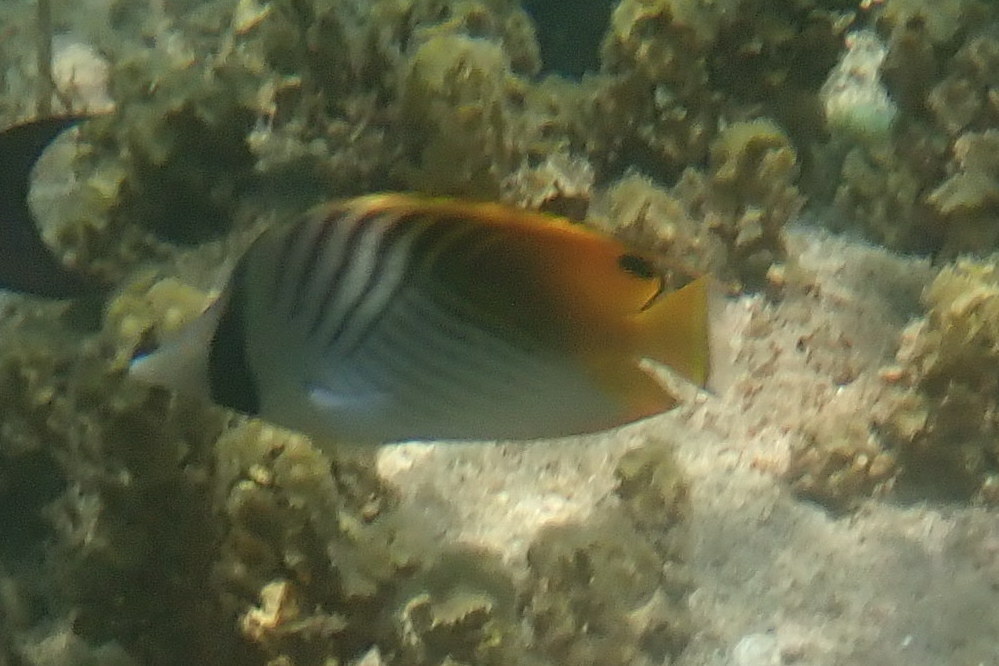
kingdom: Animalia
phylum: Chordata
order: Perciformes
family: Chaetodontidae
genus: Chaetodon
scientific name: Chaetodon auriga
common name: Threadfin butterflyfish
